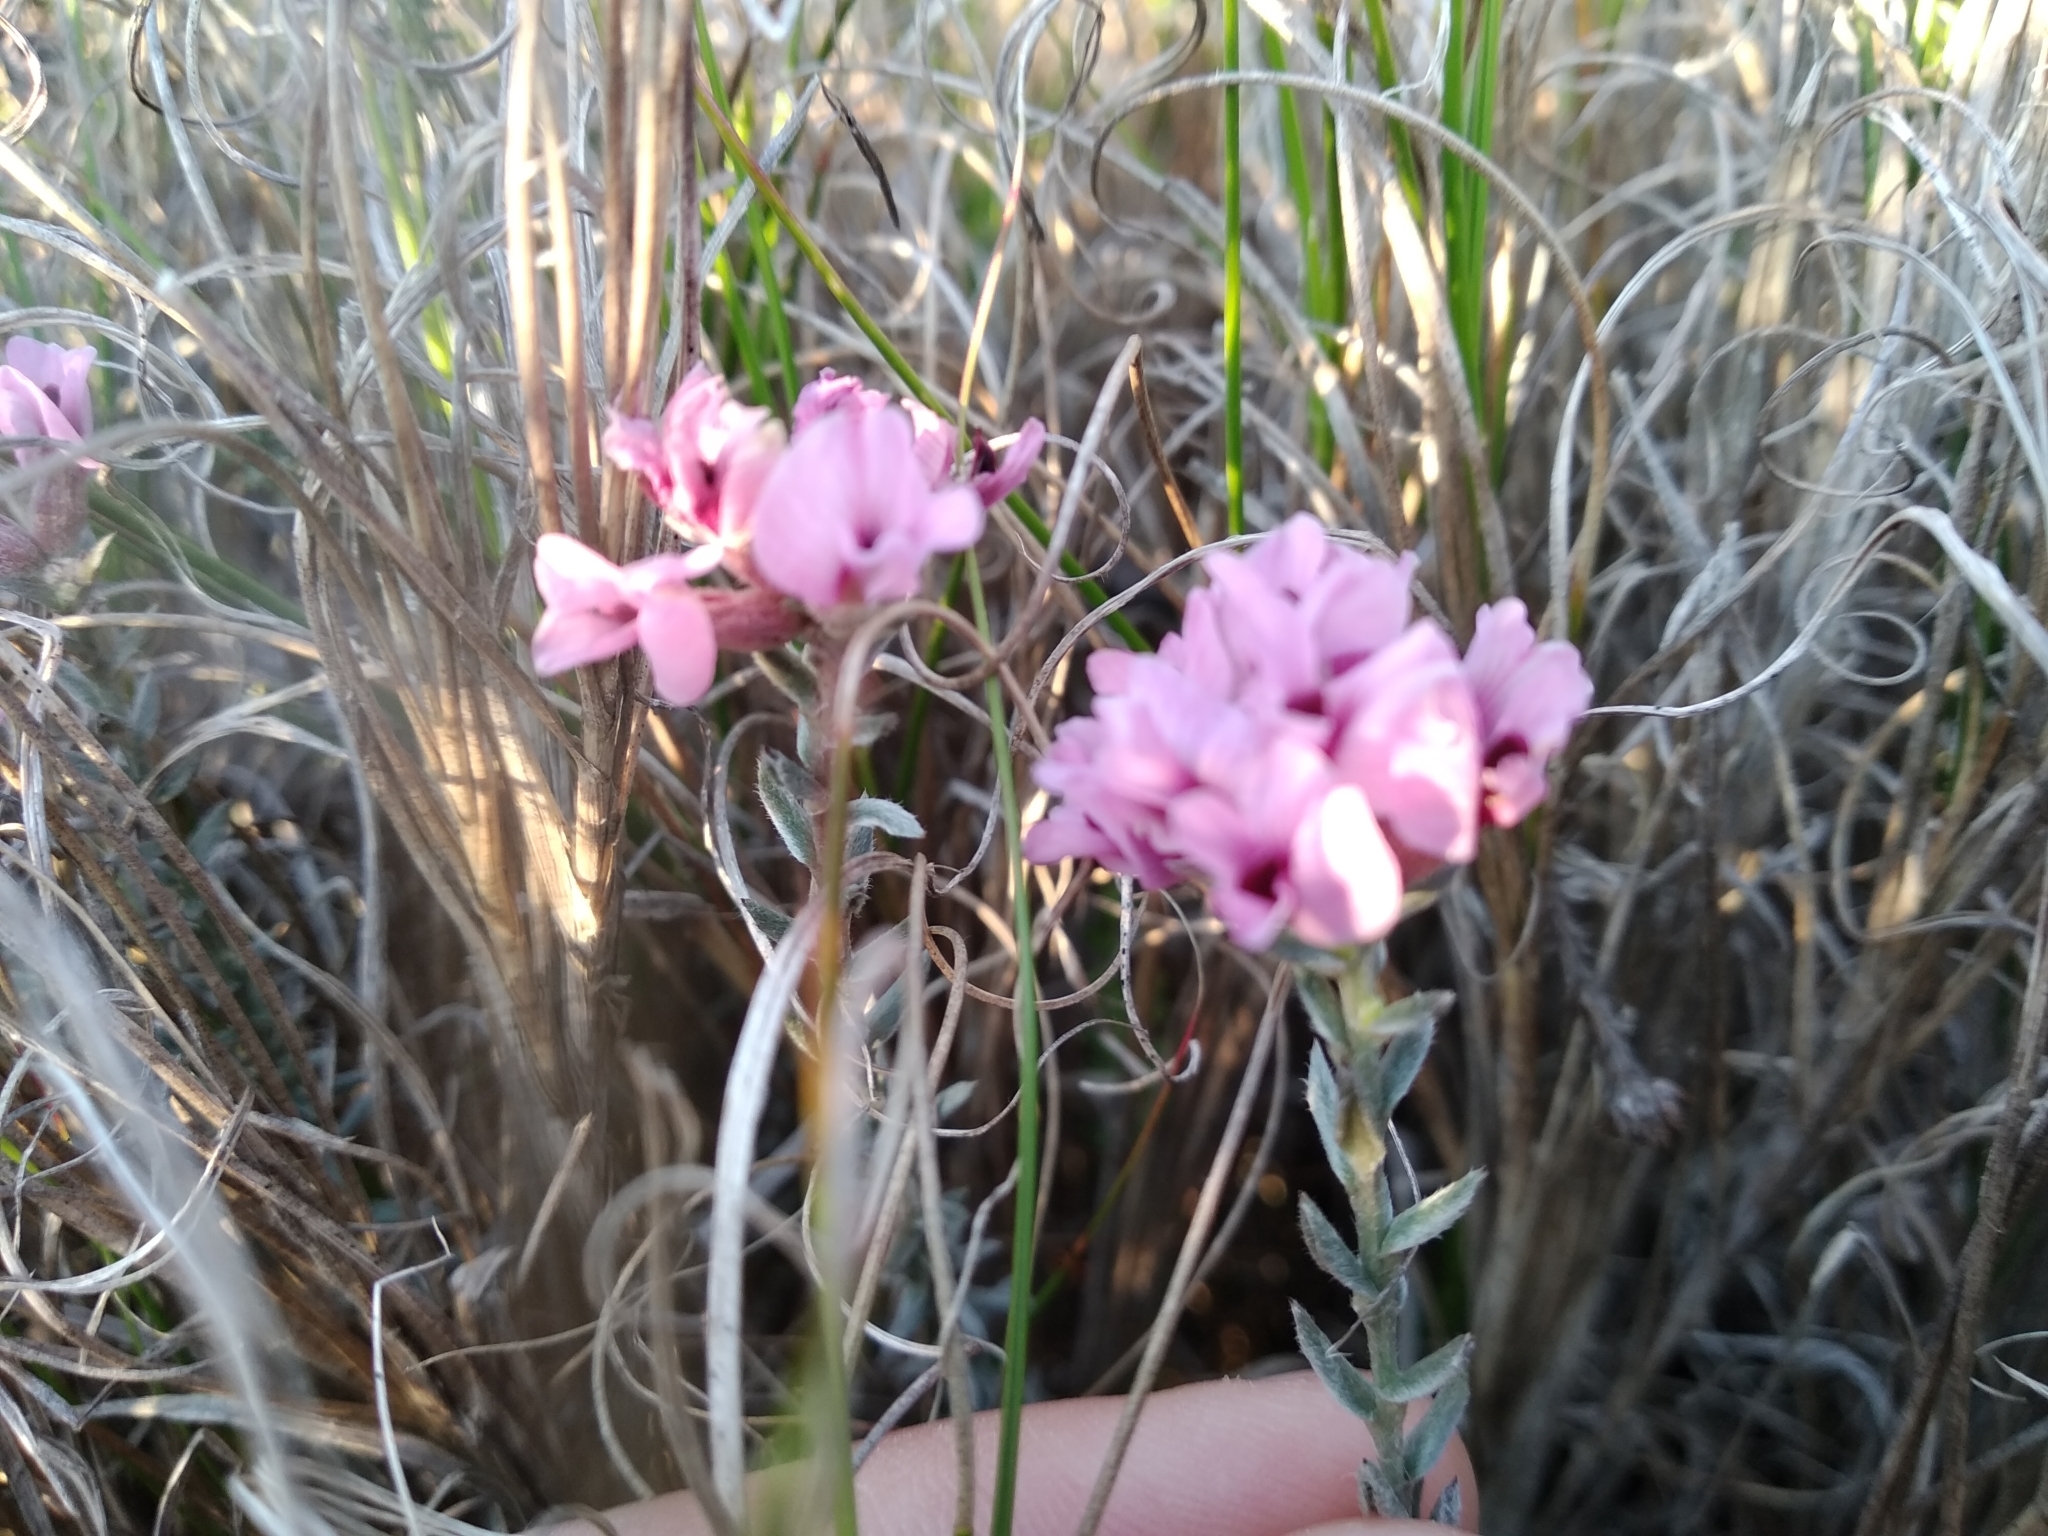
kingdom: Plantae
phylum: Tracheophyta
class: Magnoliopsida
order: Fabales
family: Fabaceae
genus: Amphithalea
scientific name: Amphithalea ericifolia
